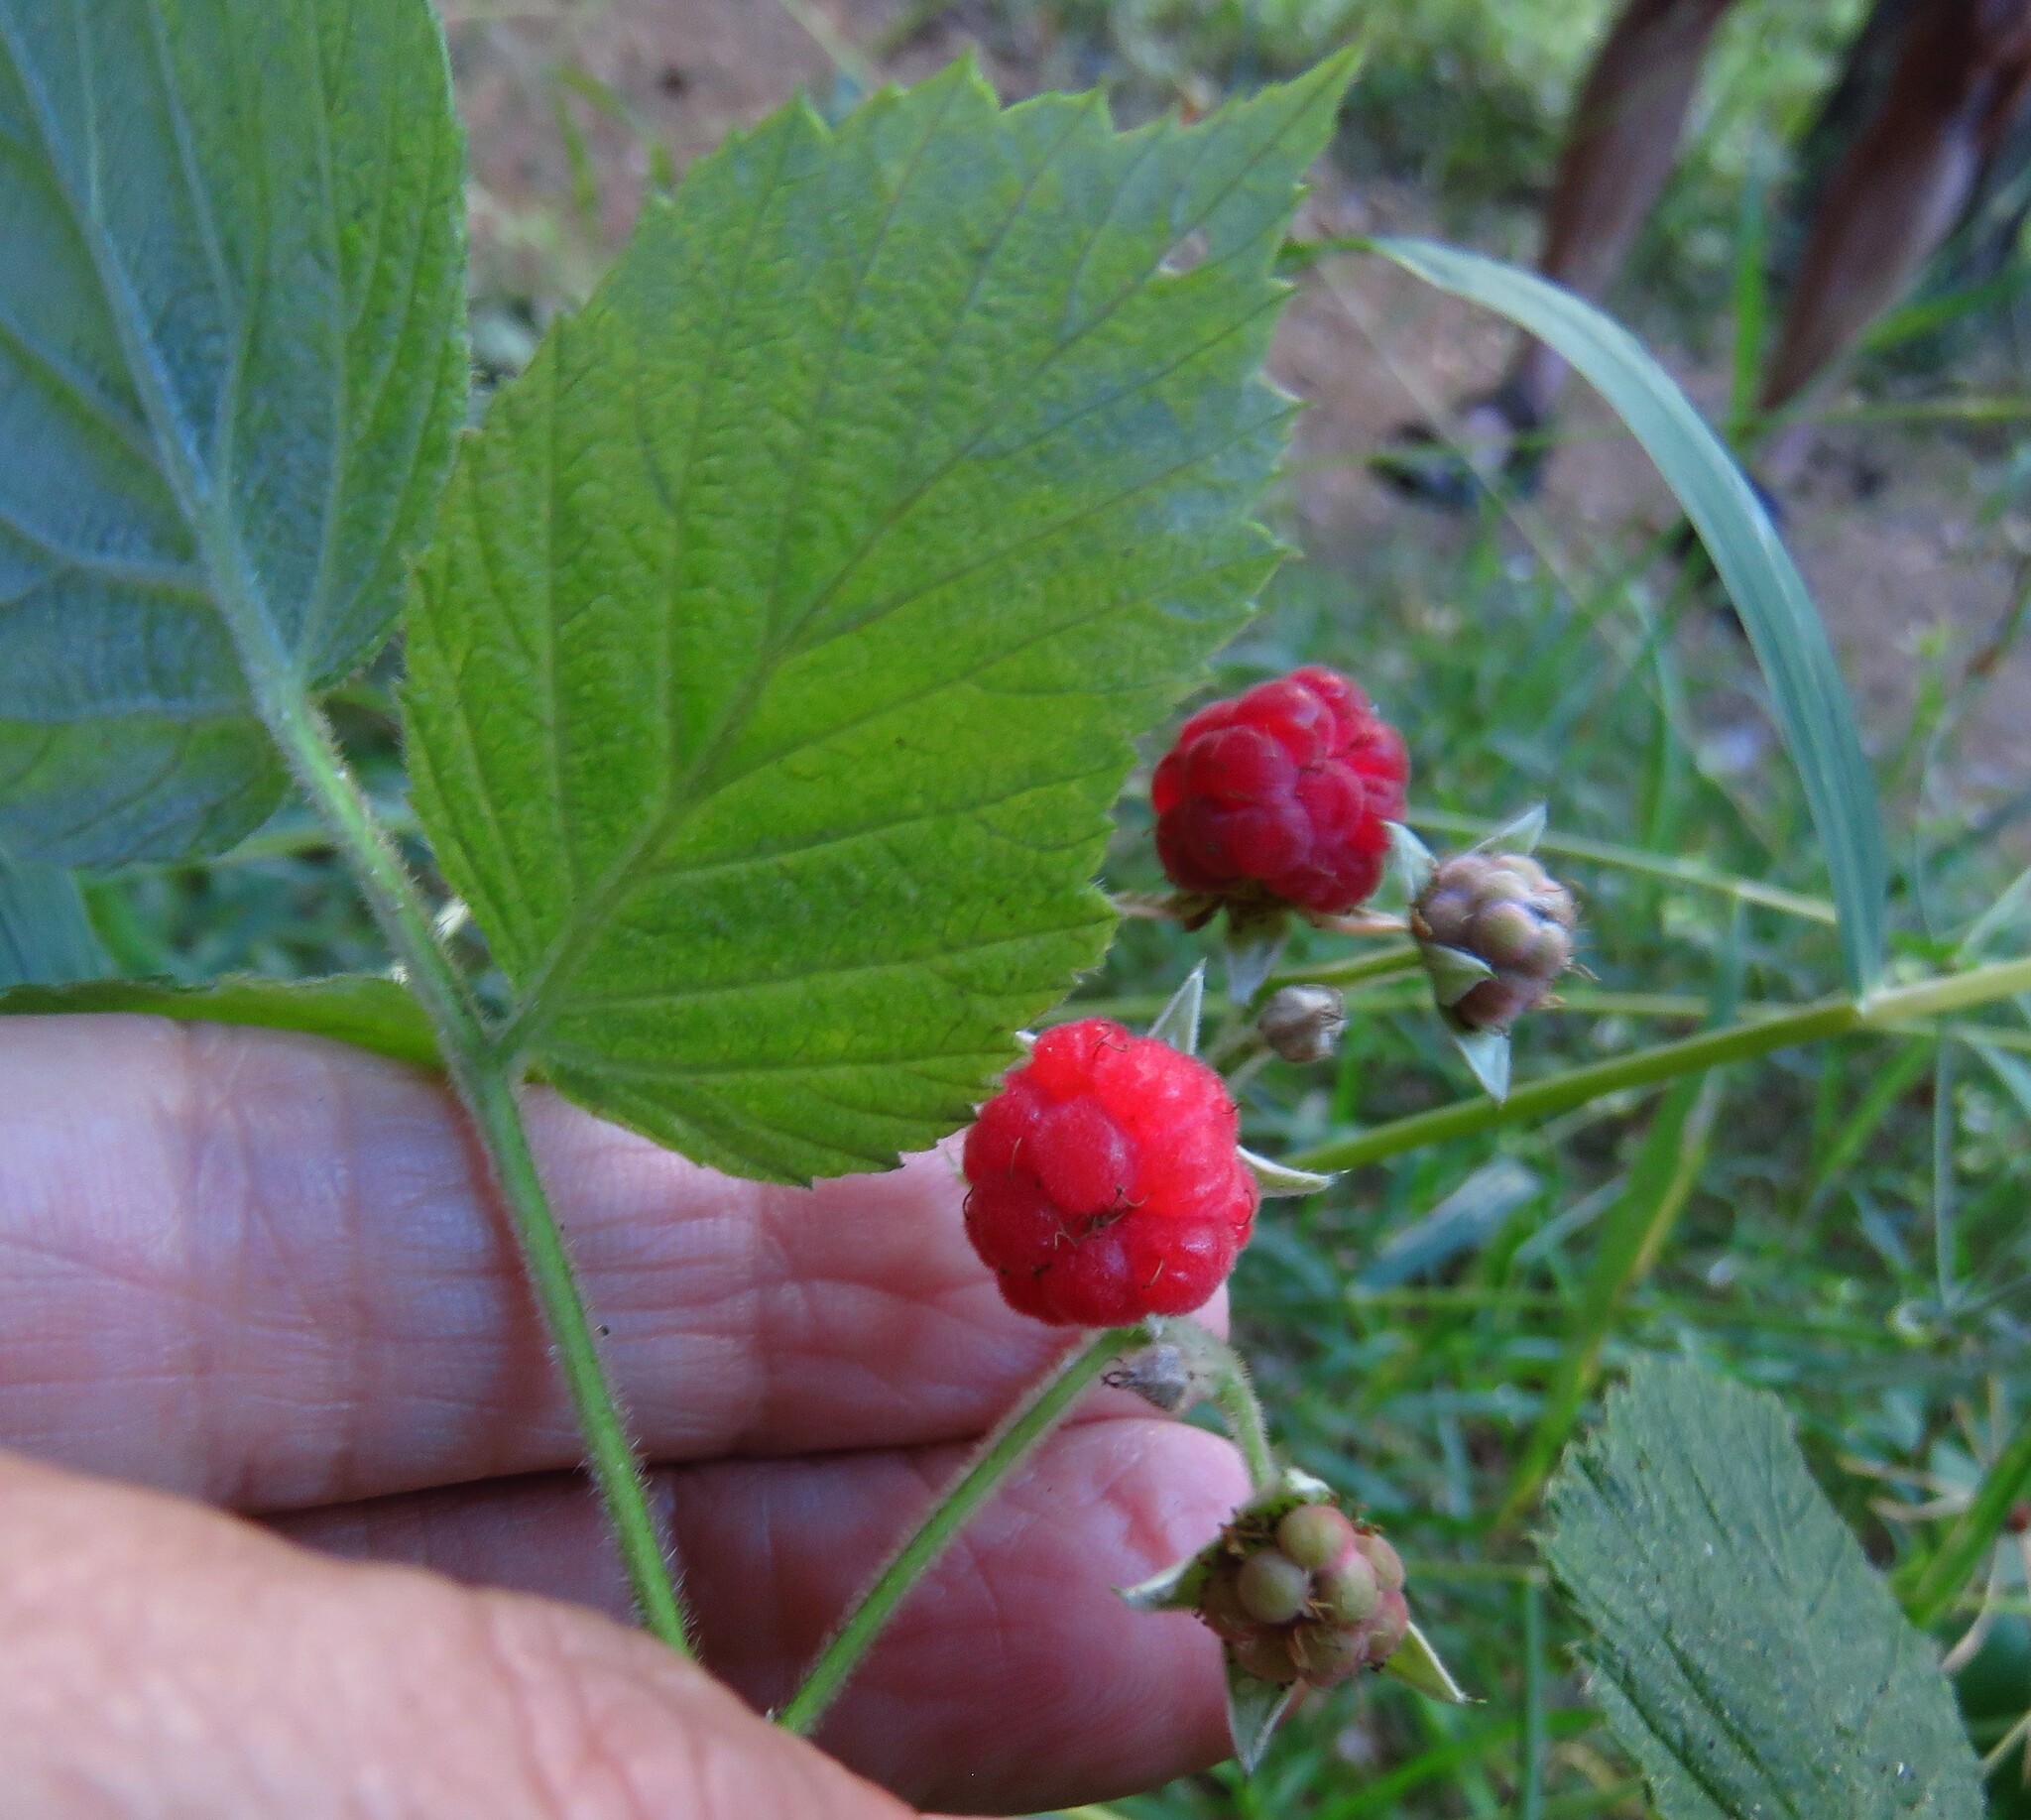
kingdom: Plantae
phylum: Tracheophyta
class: Magnoliopsida
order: Rosales
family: Rosaceae
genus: Rubus
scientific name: Rubus idaeus
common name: Raspberry
